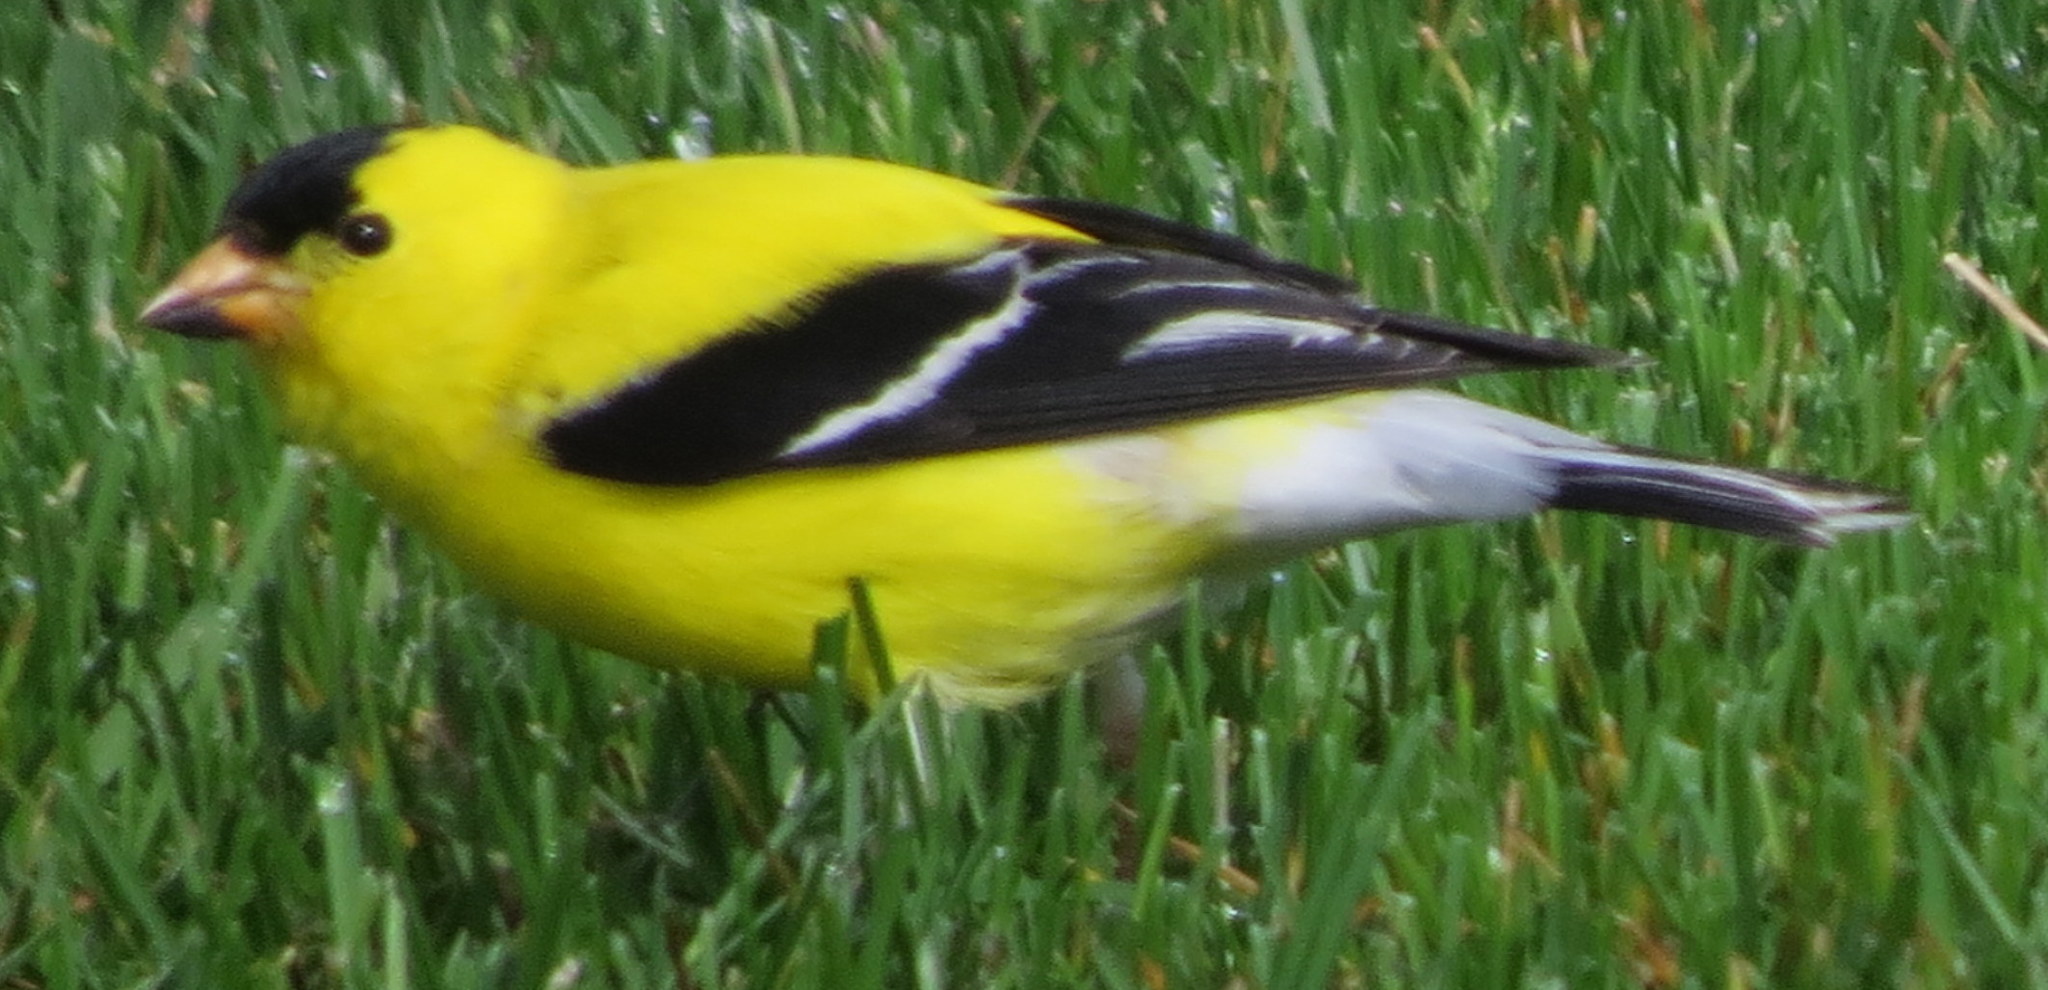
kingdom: Animalia
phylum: Chordata
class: Aves
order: Passeriformes
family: Fringillidae
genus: Spinus
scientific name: Spinus tristis
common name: American goldfinch
